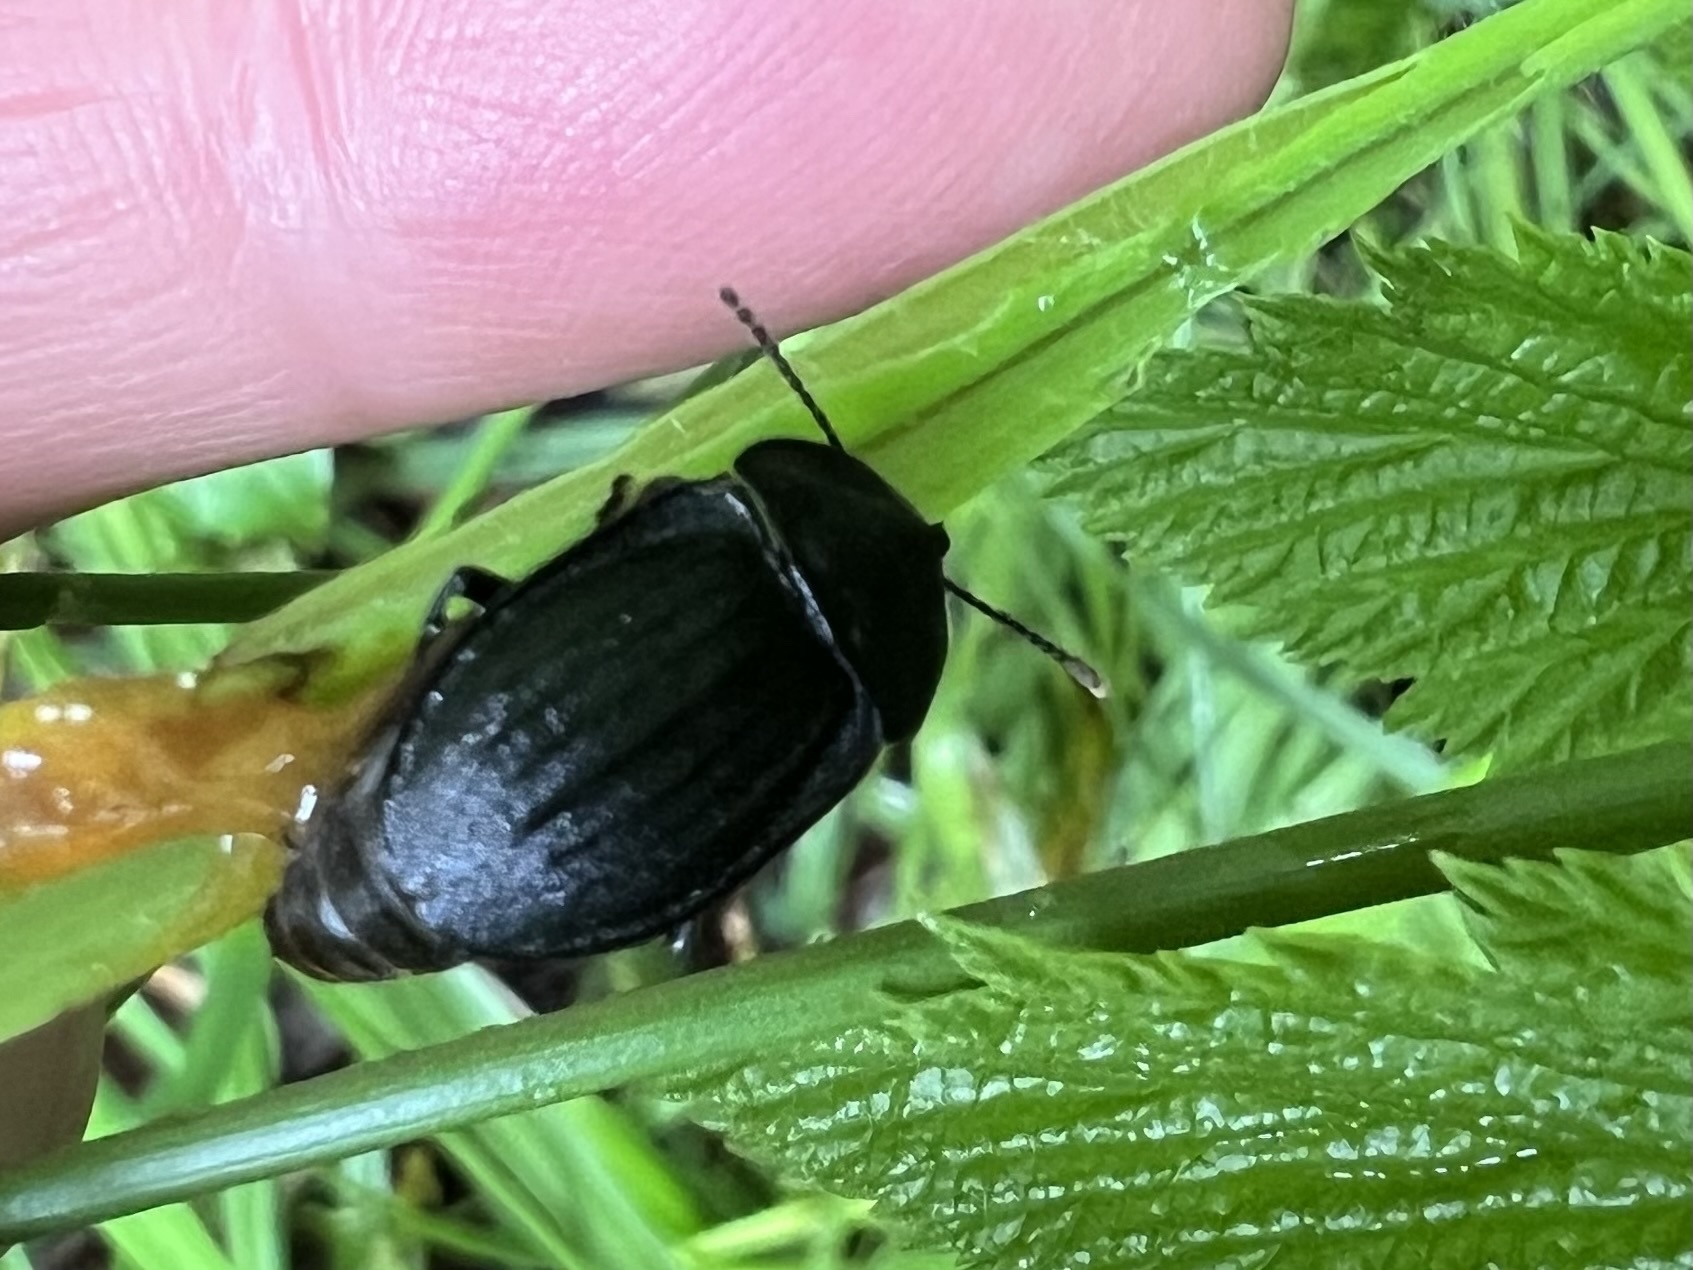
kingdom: Animalia
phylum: Arthropoda
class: Insecta
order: Coleoptera
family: Staphylinidae
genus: Silpha
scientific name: Silpha atrata
